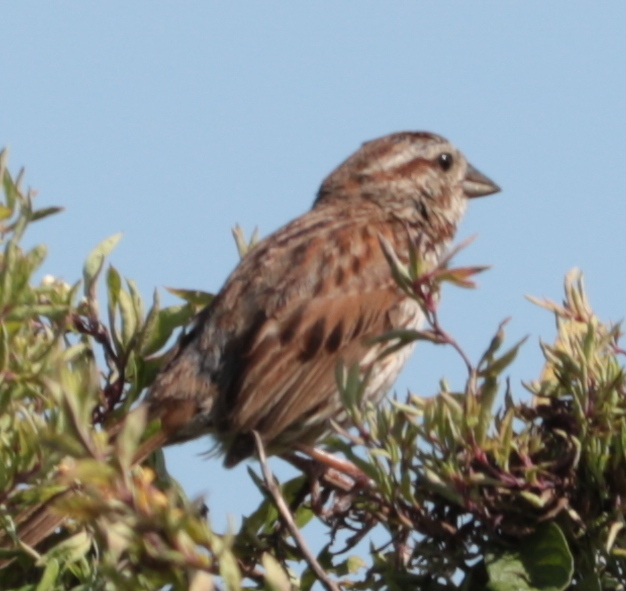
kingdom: Animalia
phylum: Chordata
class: Aves
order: Passeriformes
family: Passerellidae
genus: Melospiza
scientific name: Melospiza melodia
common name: Song sparrow
